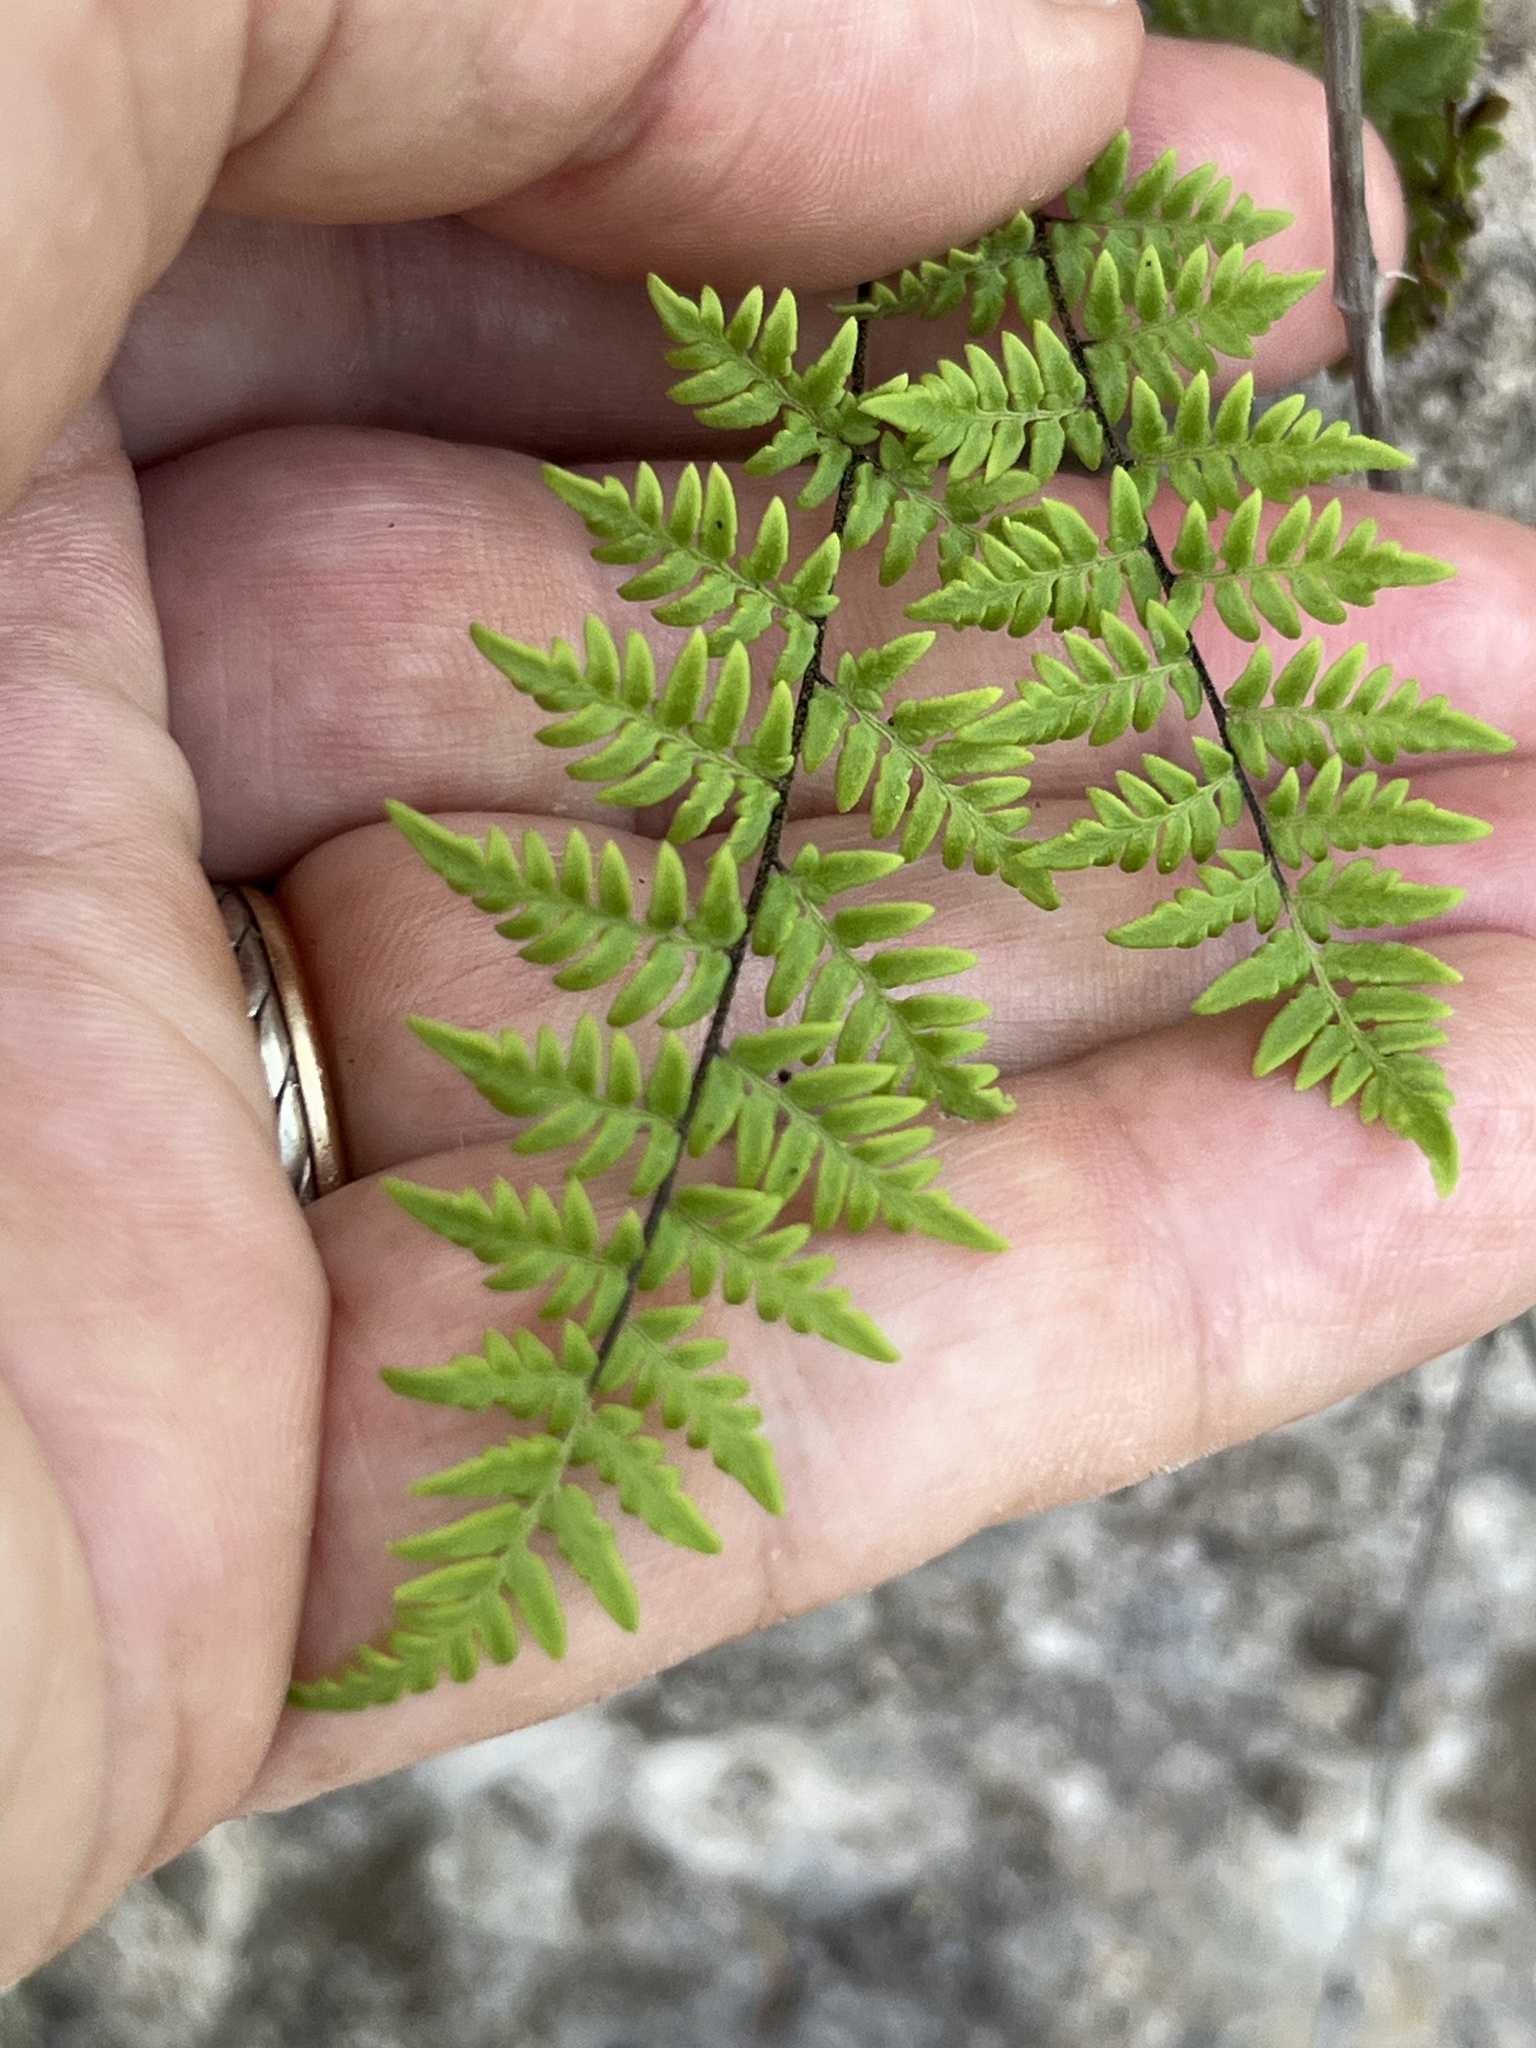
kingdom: Plantae
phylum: Tracheophyta
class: Polypodiopsida
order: Polypodiales
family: Pteridaceae
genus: Myriopteris
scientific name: Myriopteris alabamensis
